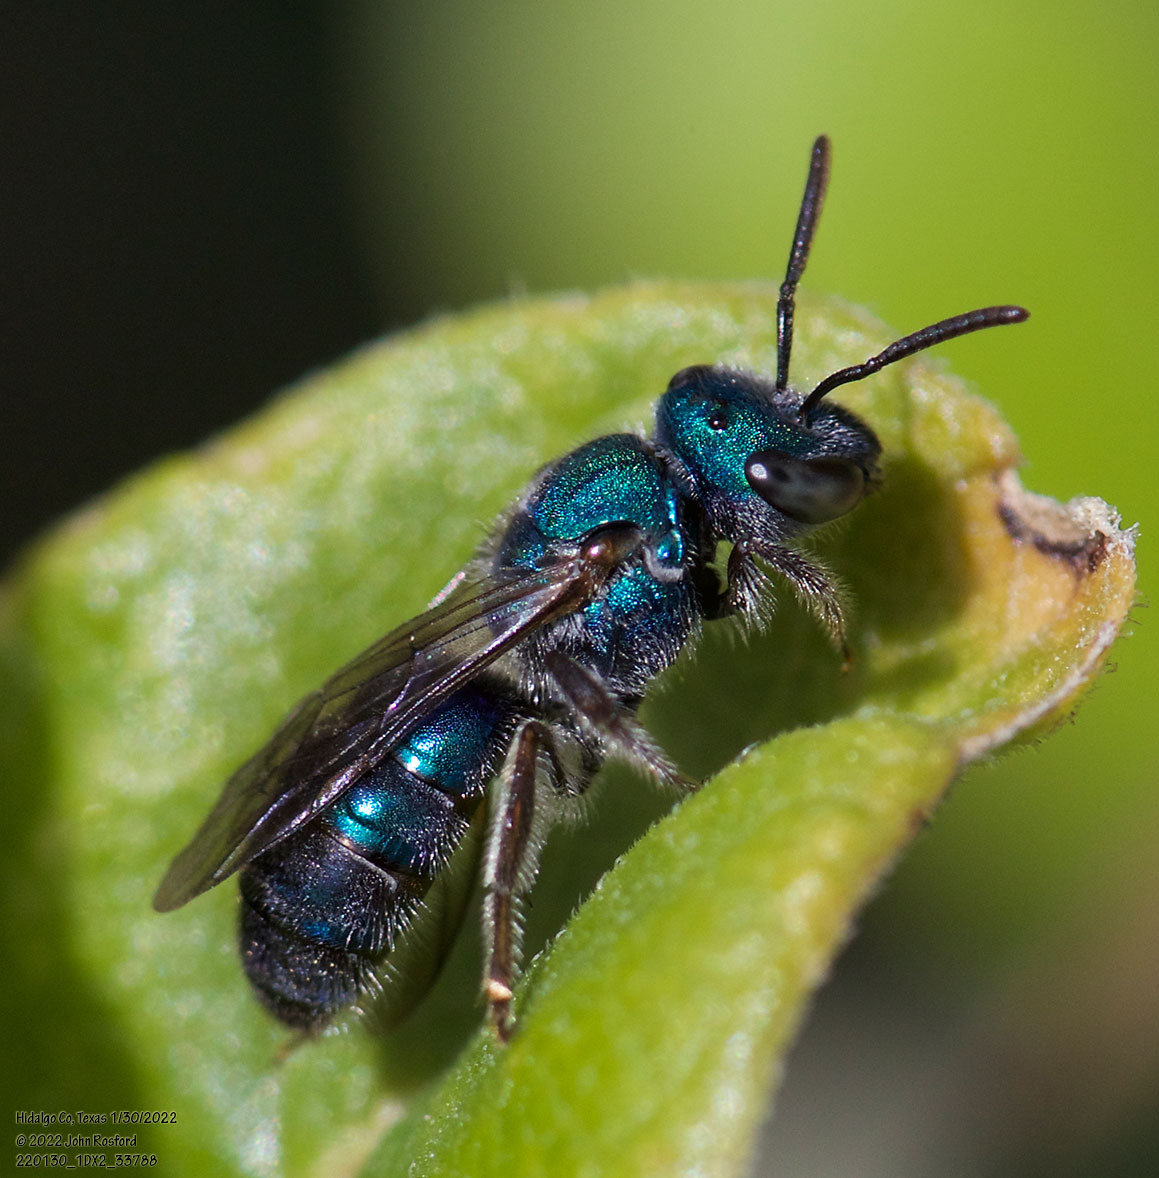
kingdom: Animalia
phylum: Arthropoda
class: Insecta
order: Hymenoptera
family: Halictidae
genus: Augochlora
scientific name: Augochlora azteca
